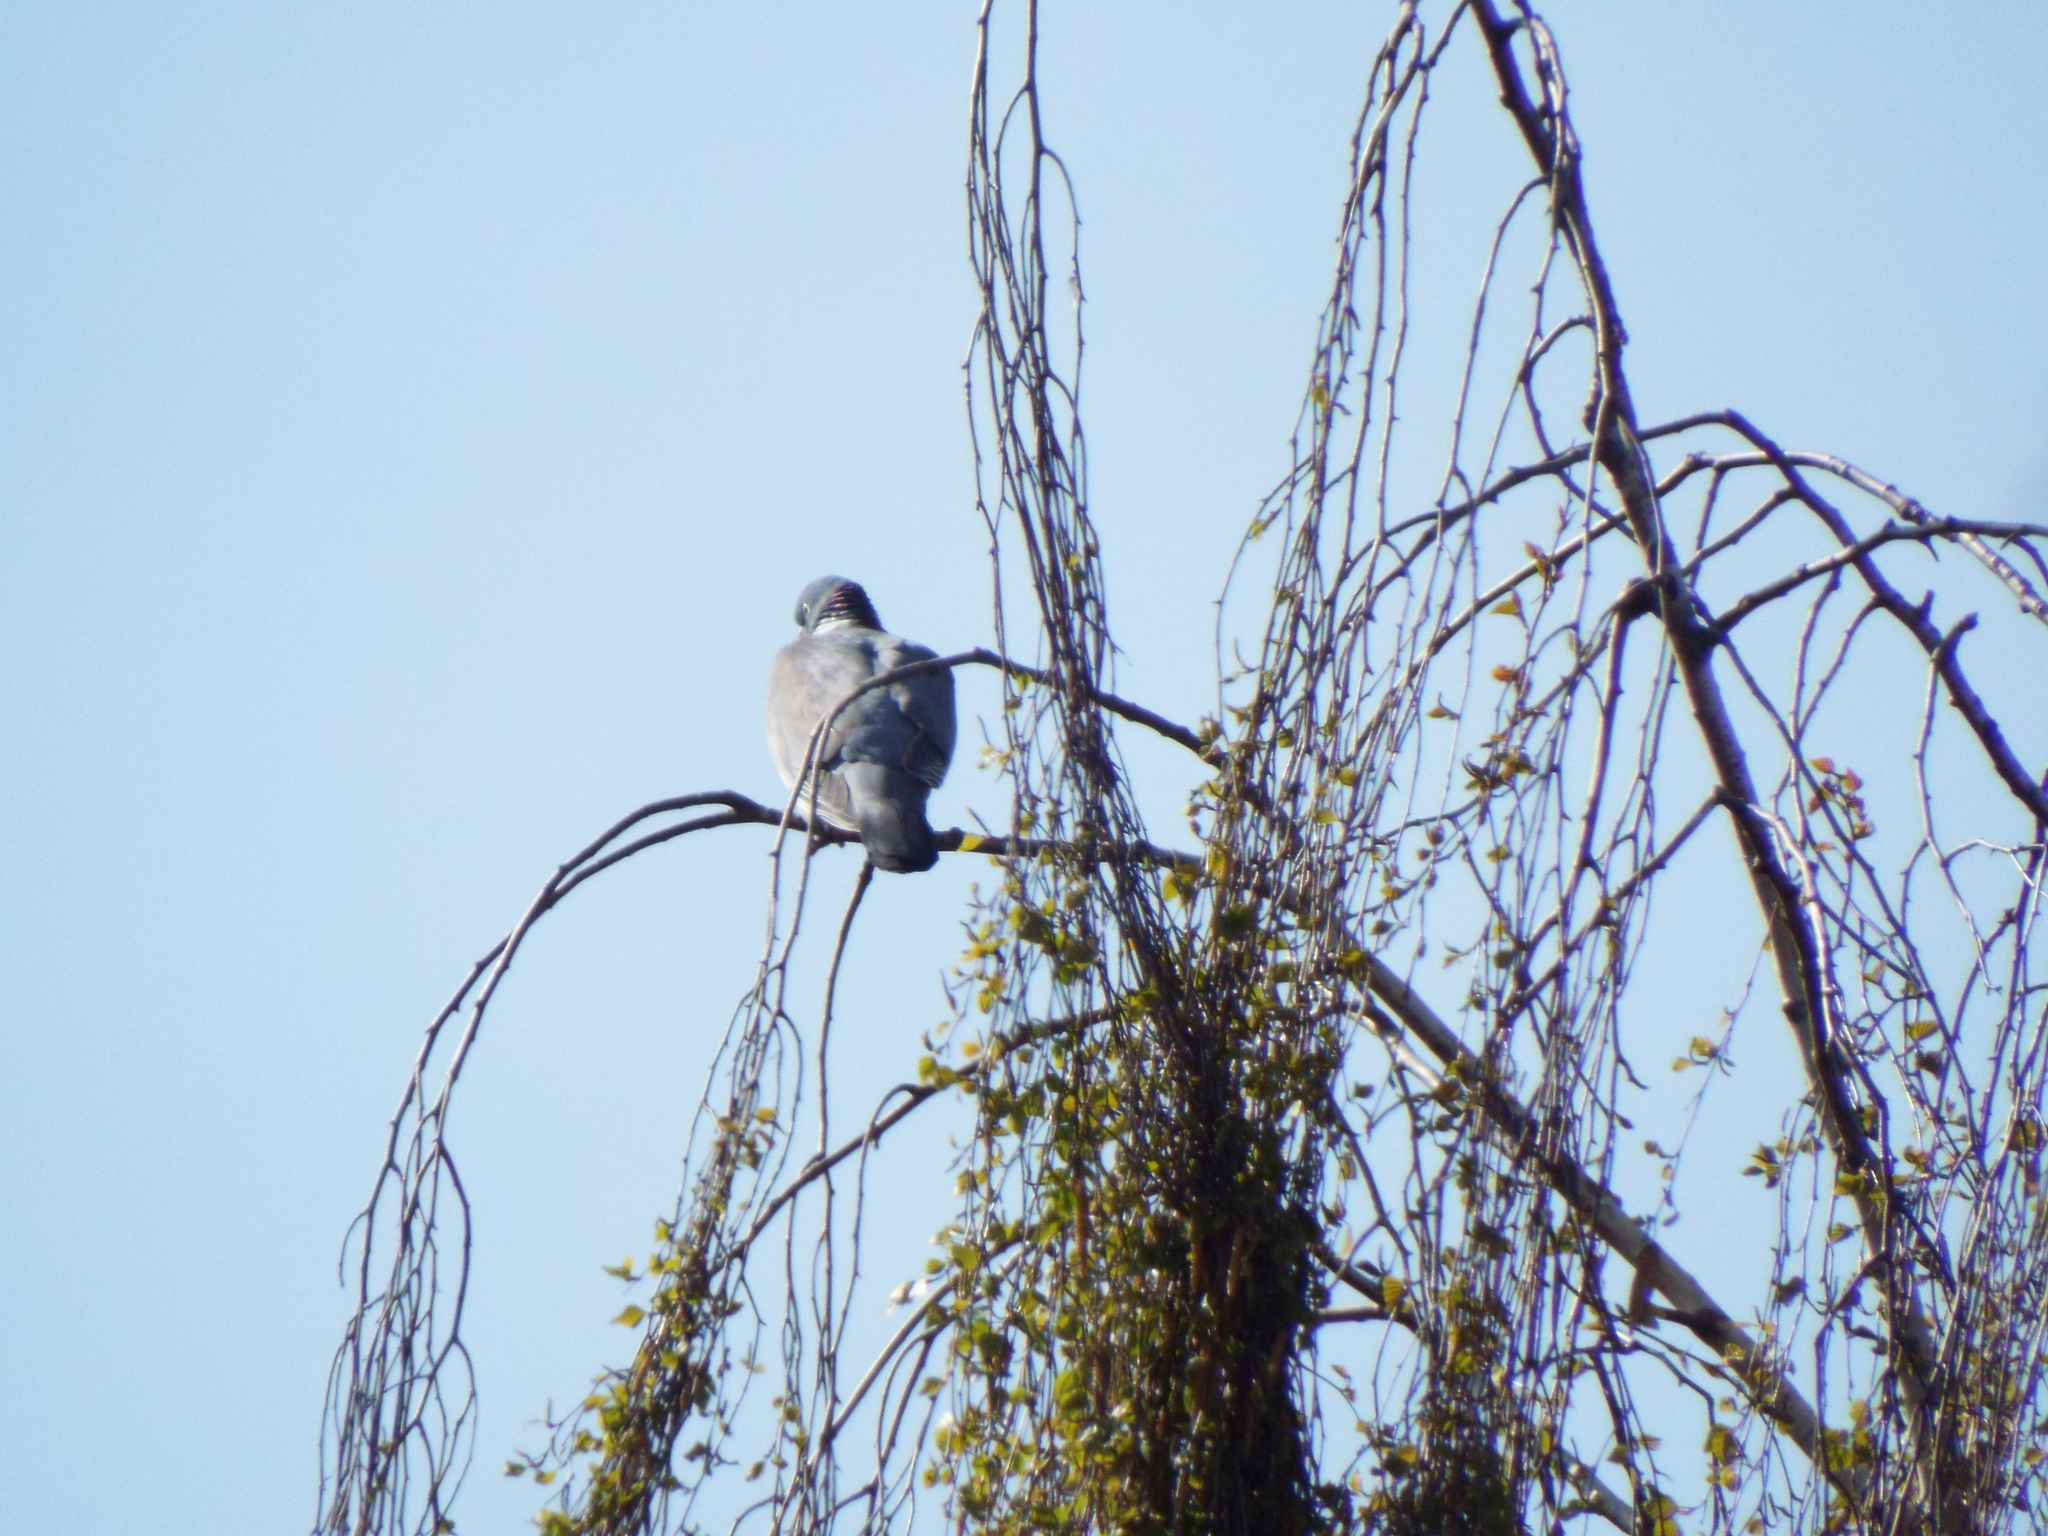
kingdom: Animalia
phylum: Chordata
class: Aves
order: Columbiformes
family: Columbidae
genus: Columba
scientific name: Columba palumbus
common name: Common wood pigeon
